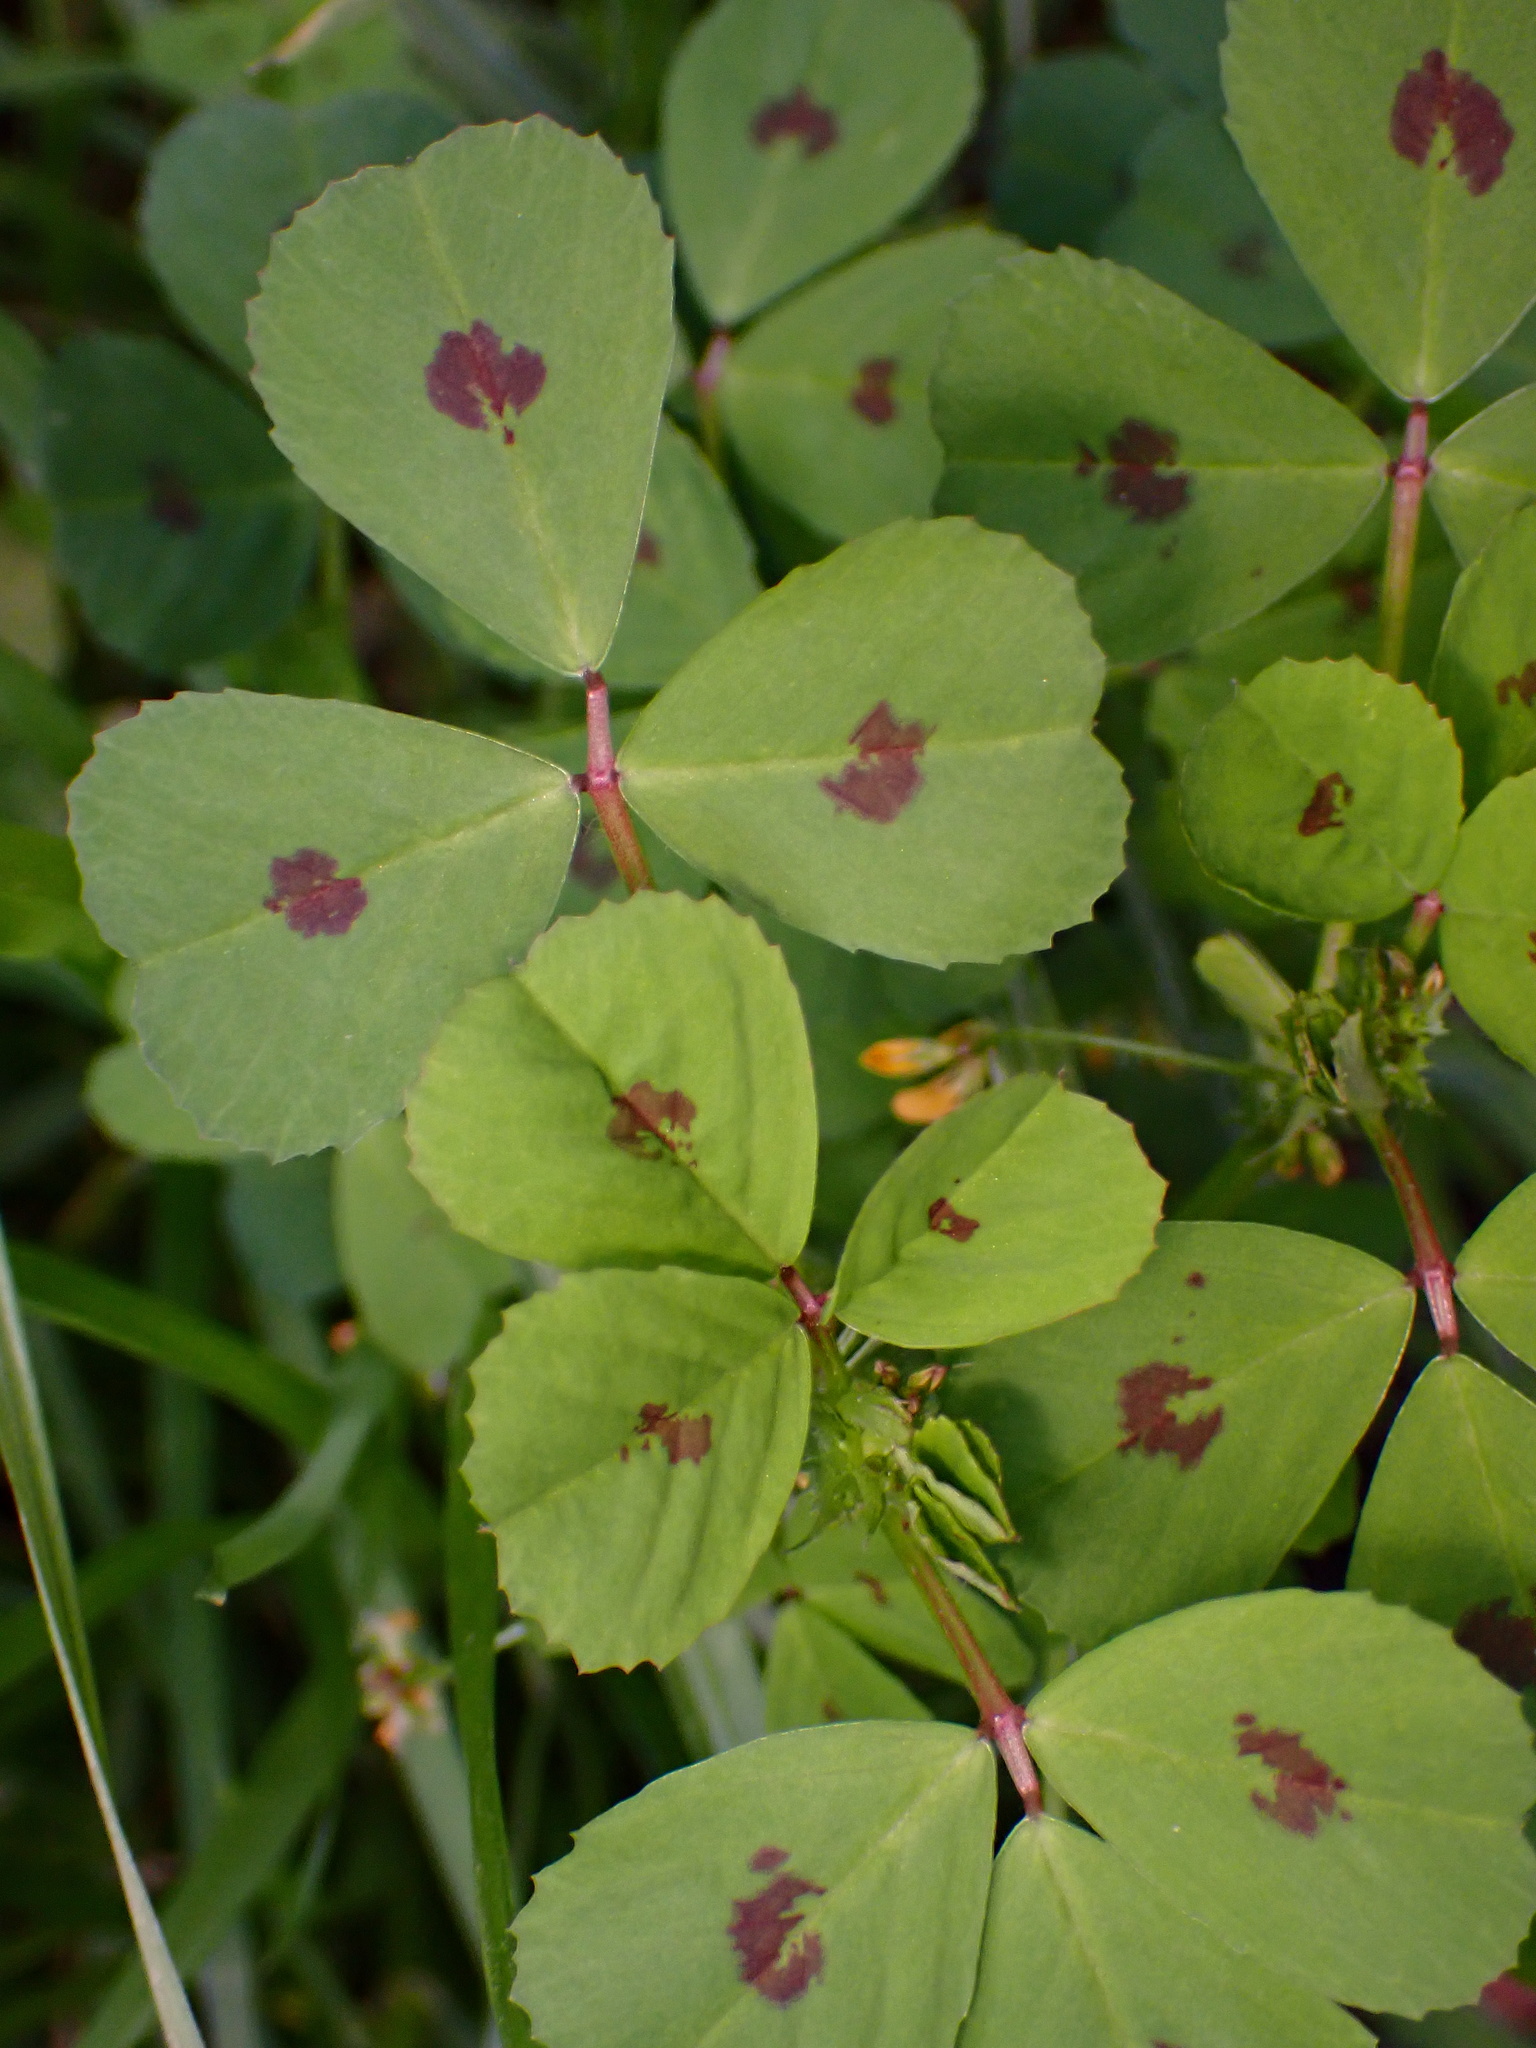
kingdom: Plantae
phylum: Tracheophyta
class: Magnoliopsida
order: Fabales
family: Fabaceae
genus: Medicago
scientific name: Medicago arabica
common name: Spotted medick
